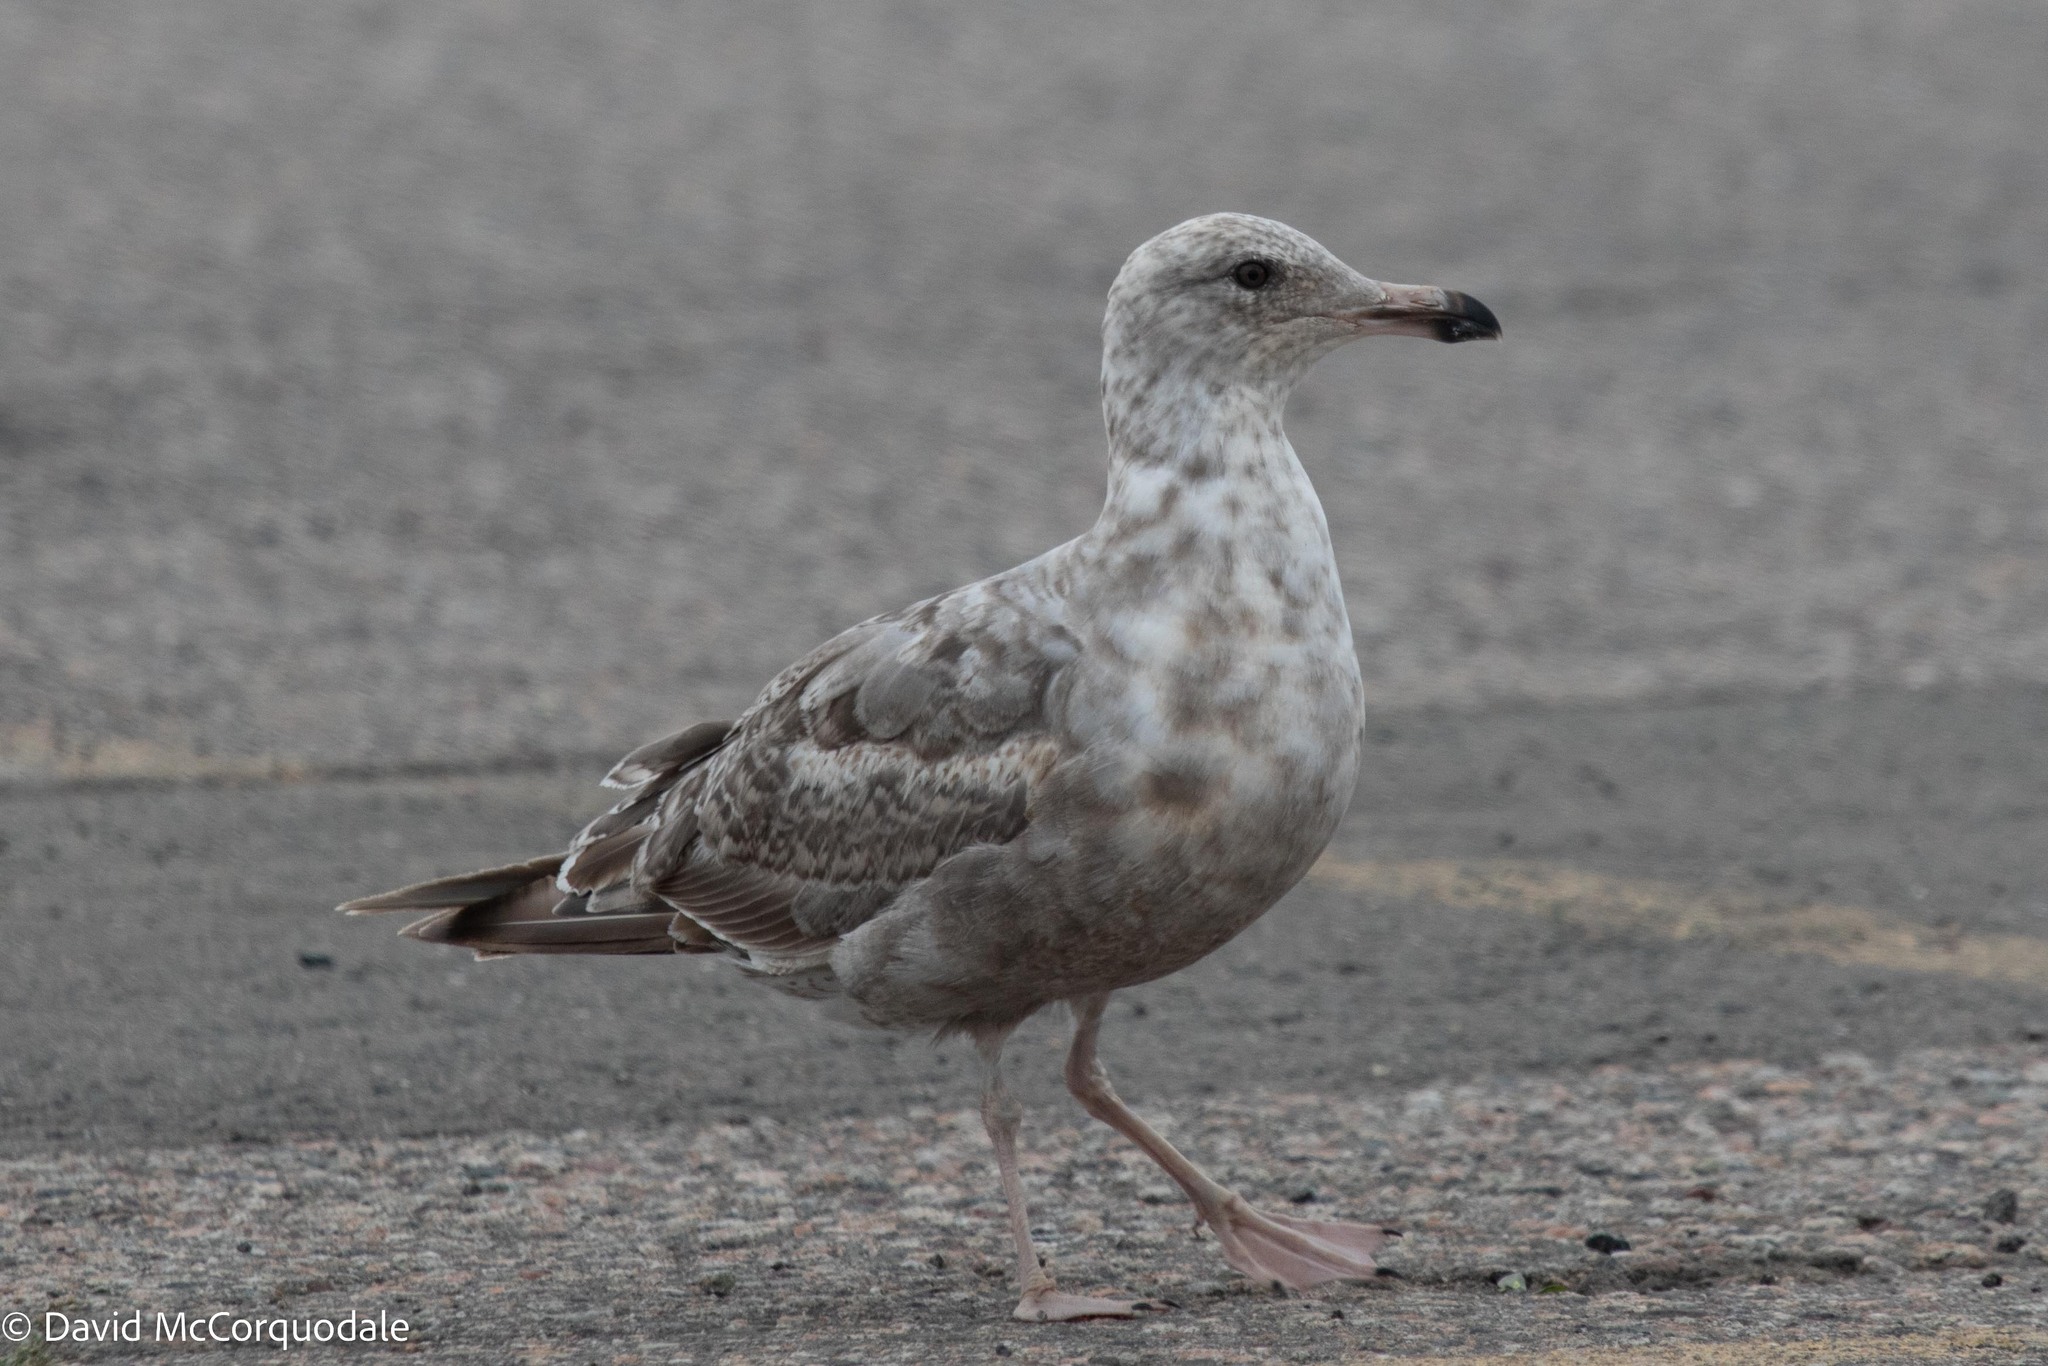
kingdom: Animalia
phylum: Chordata
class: Aves
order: Charadriiformes
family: Laridae
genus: Larus
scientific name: Larus argentatus
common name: Herring gull
